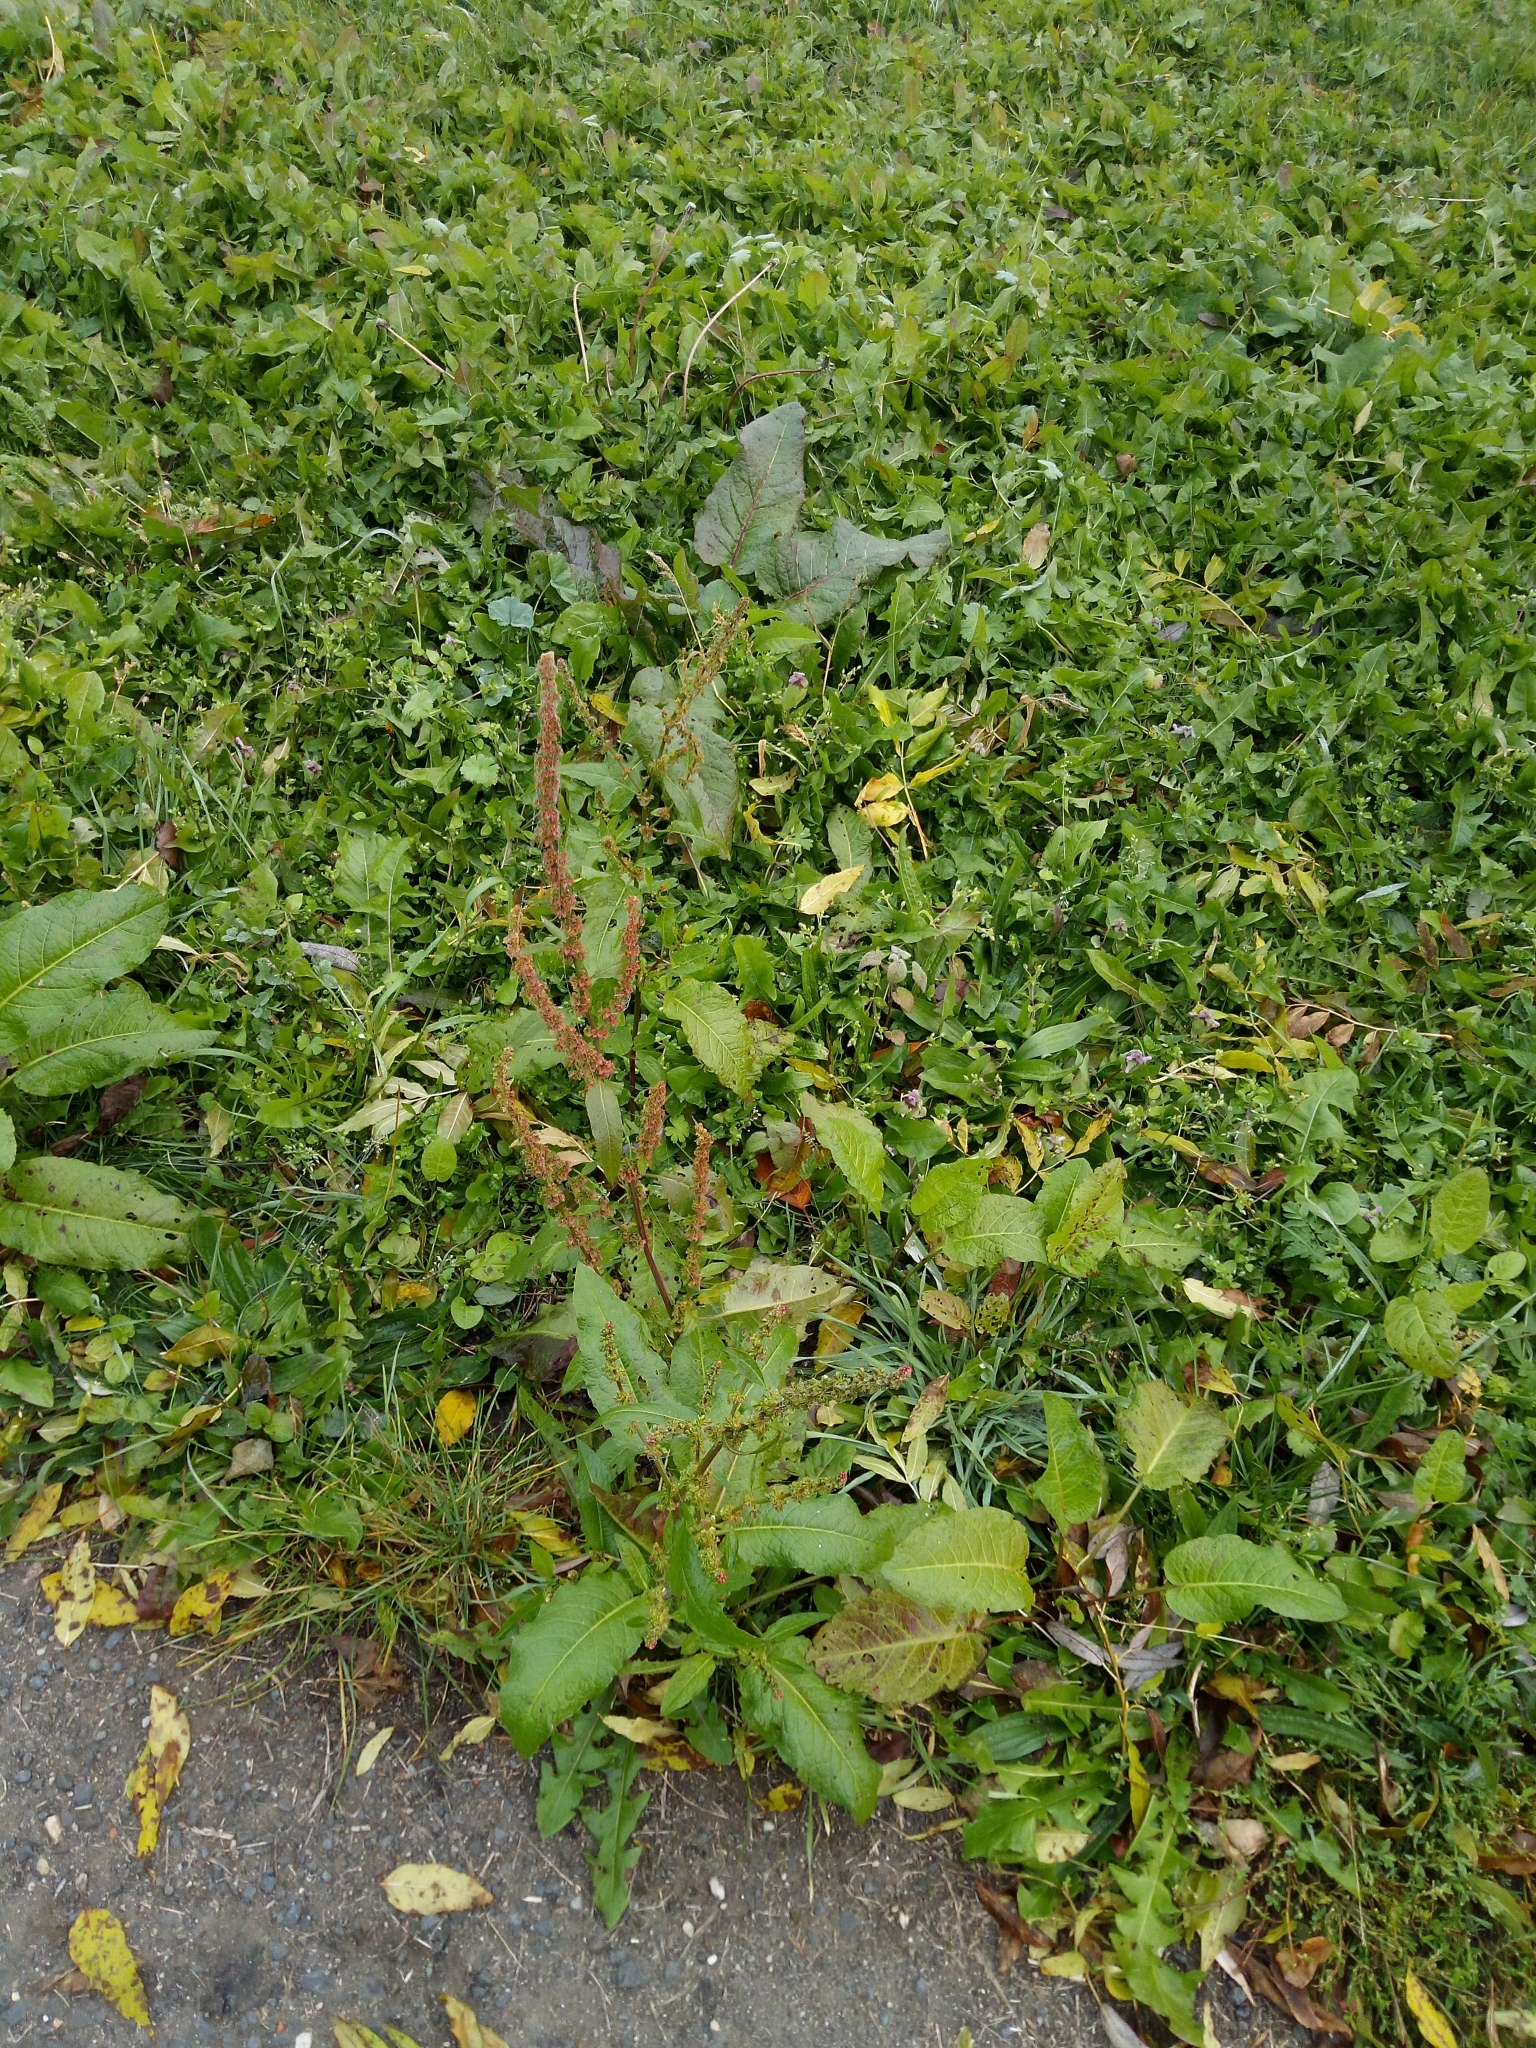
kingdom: Plantae
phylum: Tracheophyta
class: Magnoliopsida
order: Caryophyllales
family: Polygonaceae
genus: Rumex
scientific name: Rumex obtusifolius
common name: Bitter dock
